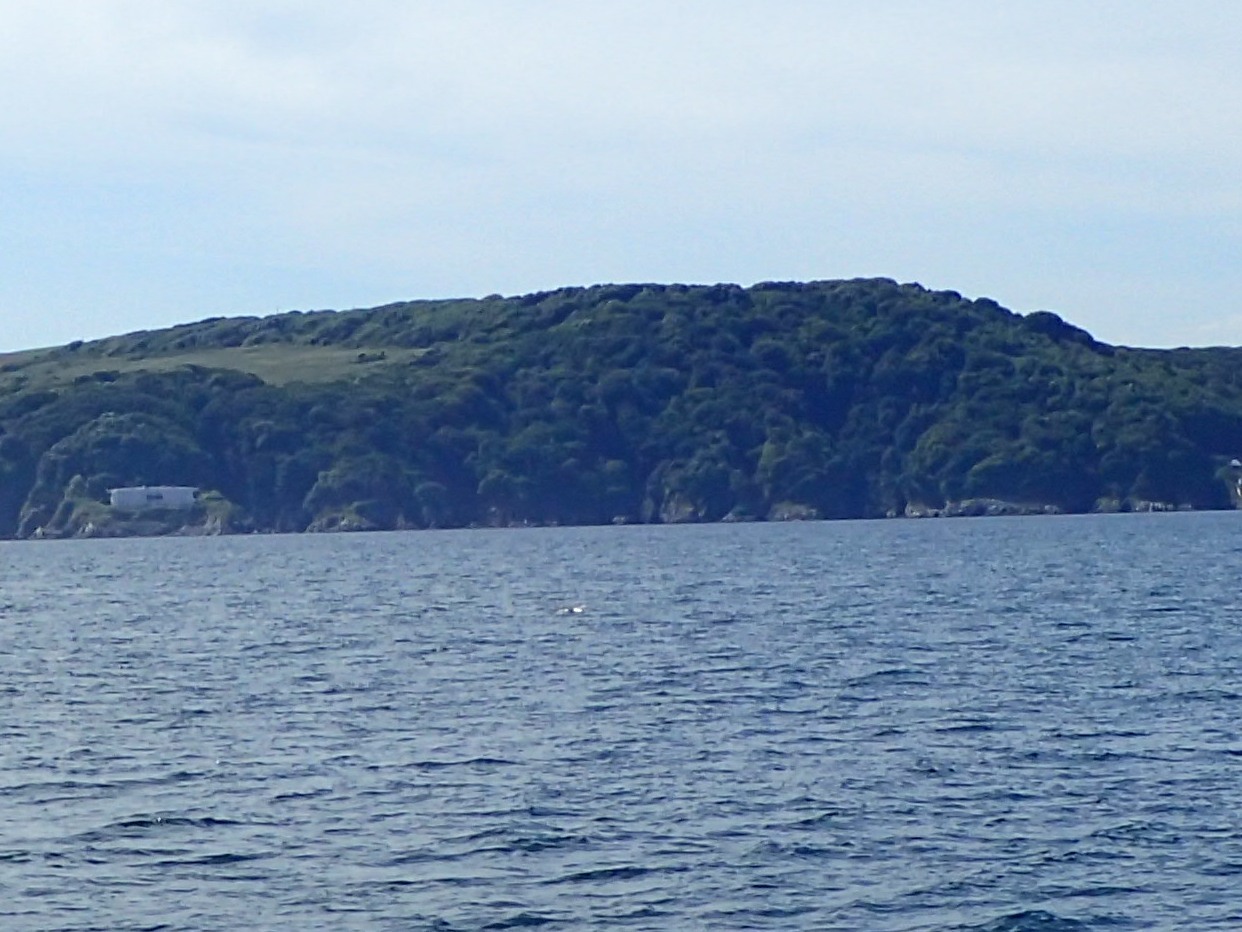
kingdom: Animalia
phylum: Chordata
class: Aves
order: Charadriiformes
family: Laridae
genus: Larus
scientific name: Larus marinus
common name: Great black-backed gull
